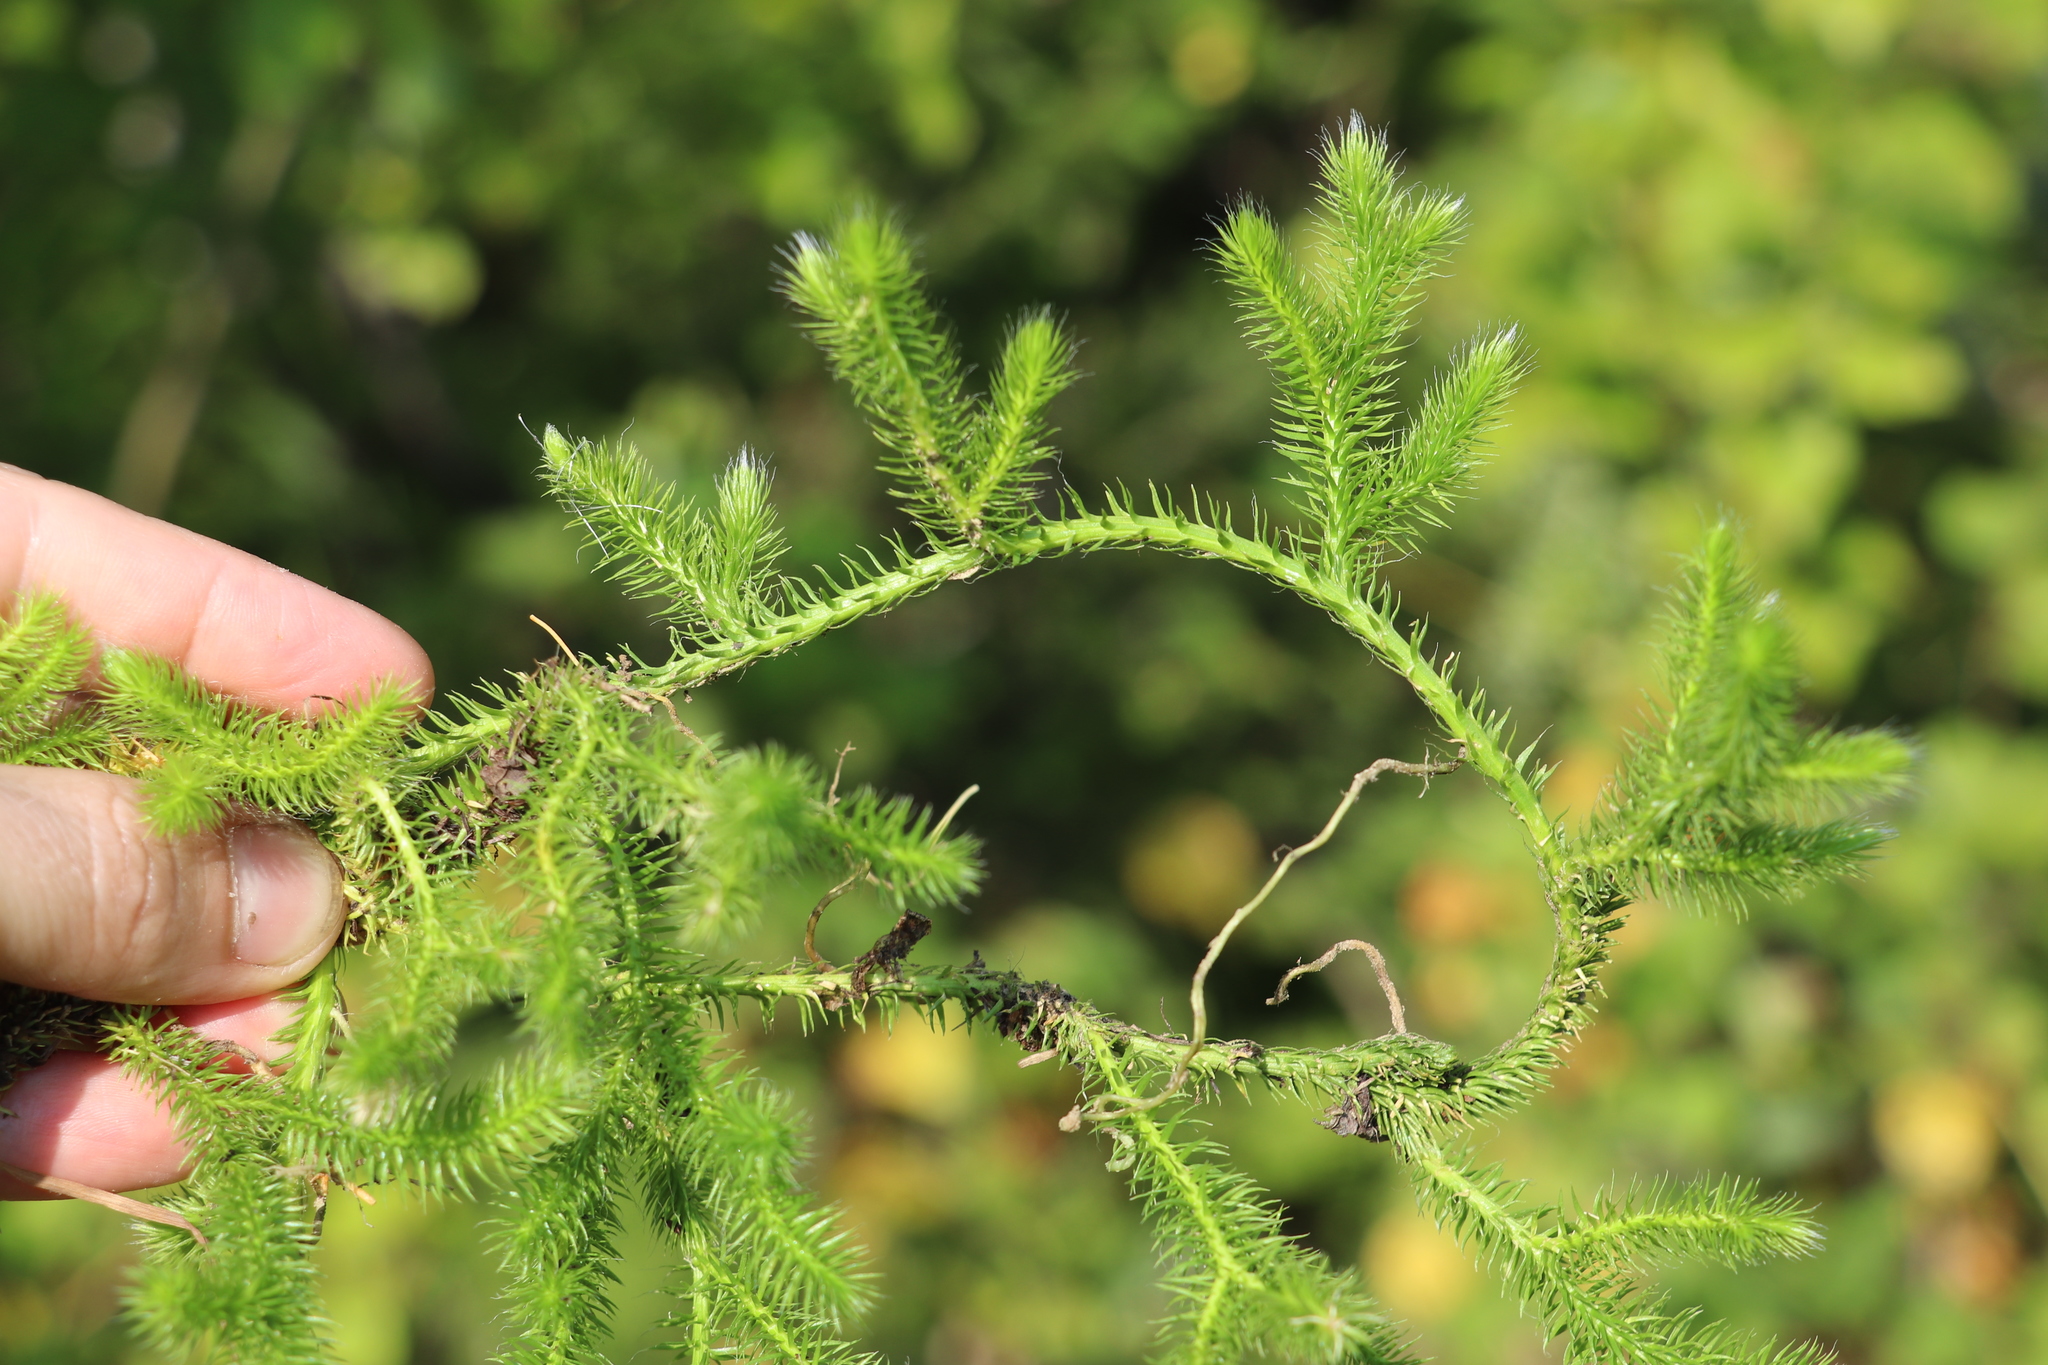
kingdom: Plantae
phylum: Tracheophyta
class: Lycopodiopsida
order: Lycopodiales
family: Lycopodiaceae
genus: Lycopodium
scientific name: Lycopodium clavatum
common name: Stag's-horn clubmoss
